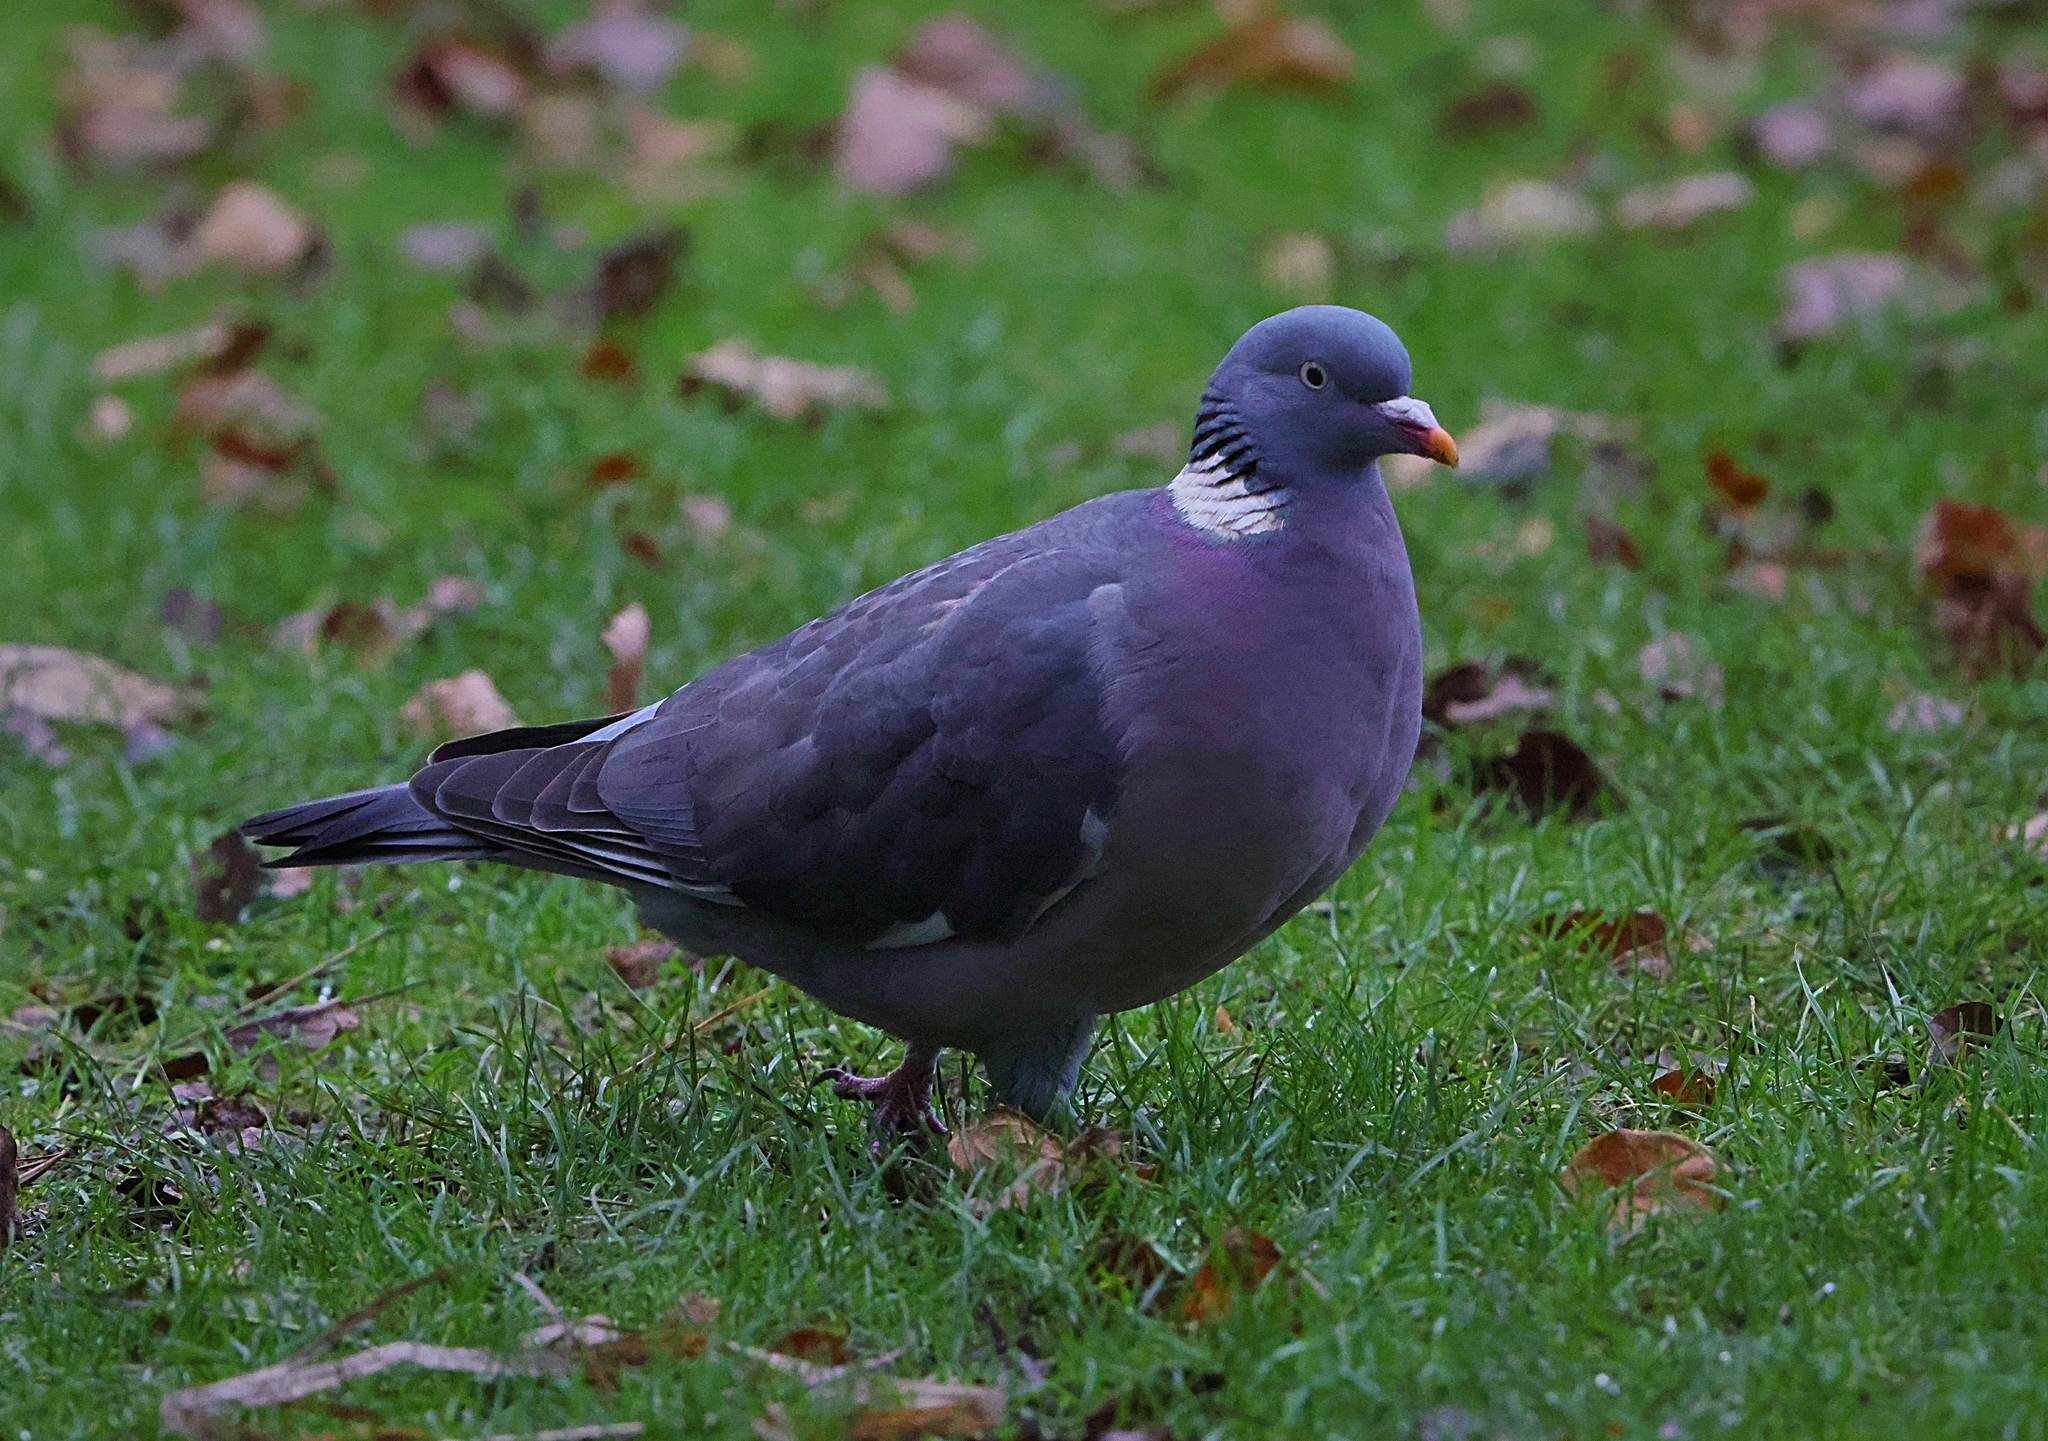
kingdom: Animalia
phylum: Chordata
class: Aves
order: Columbiformes
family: Columbidae
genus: Columba
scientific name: Columba palumbus
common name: Common wood pigeon
